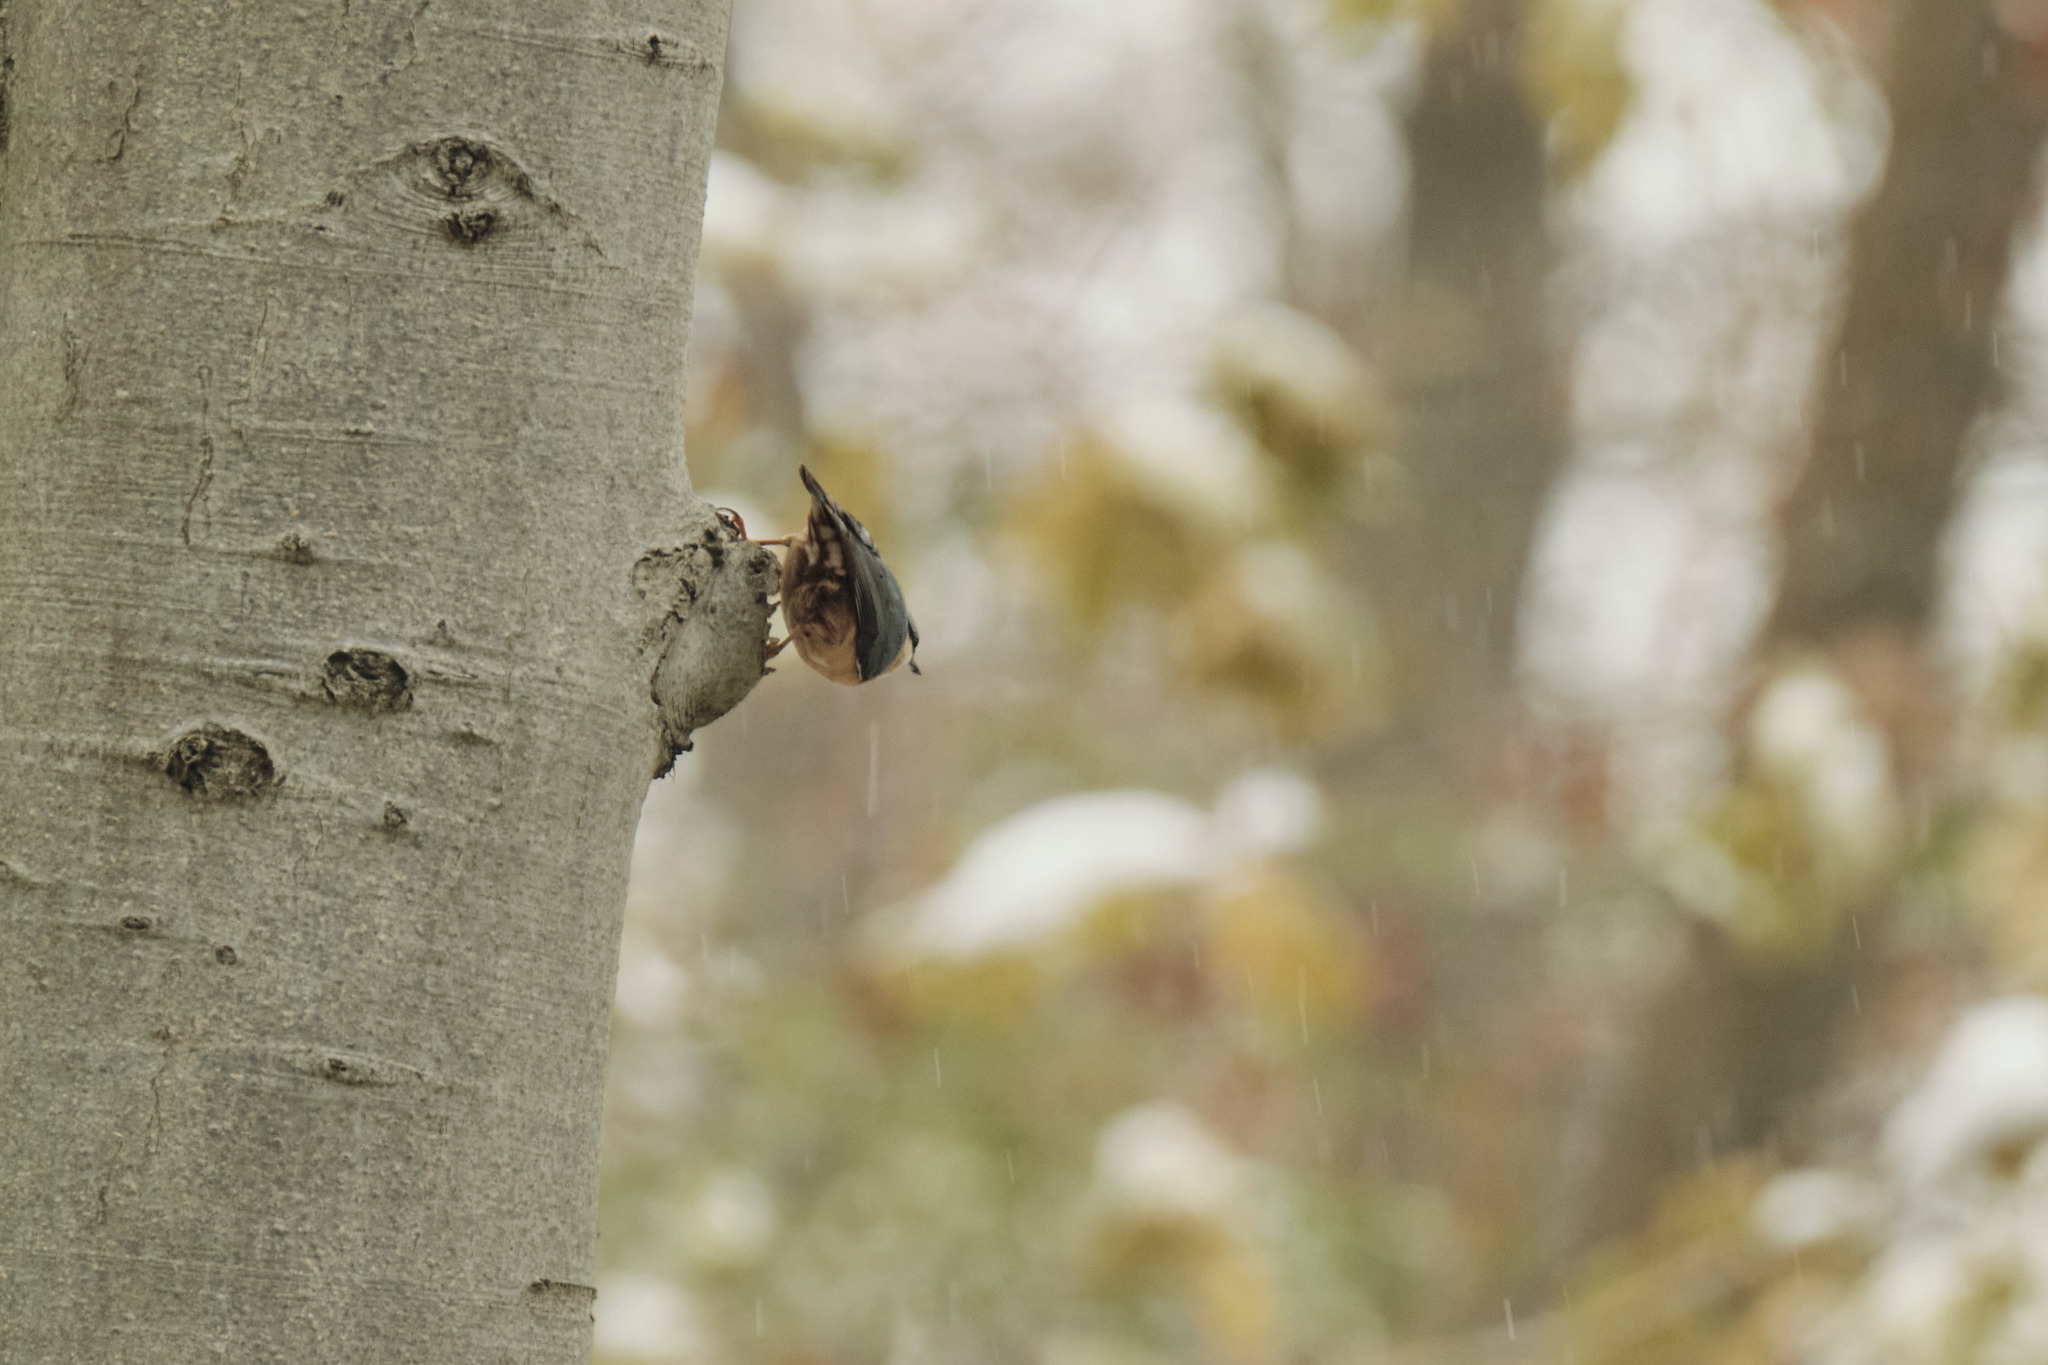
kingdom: Animalia
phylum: Chordata
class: Aves
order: Passeriformes
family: Sittidae
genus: Sitta
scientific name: Sitta europaea
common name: Eurasian nuthatch
